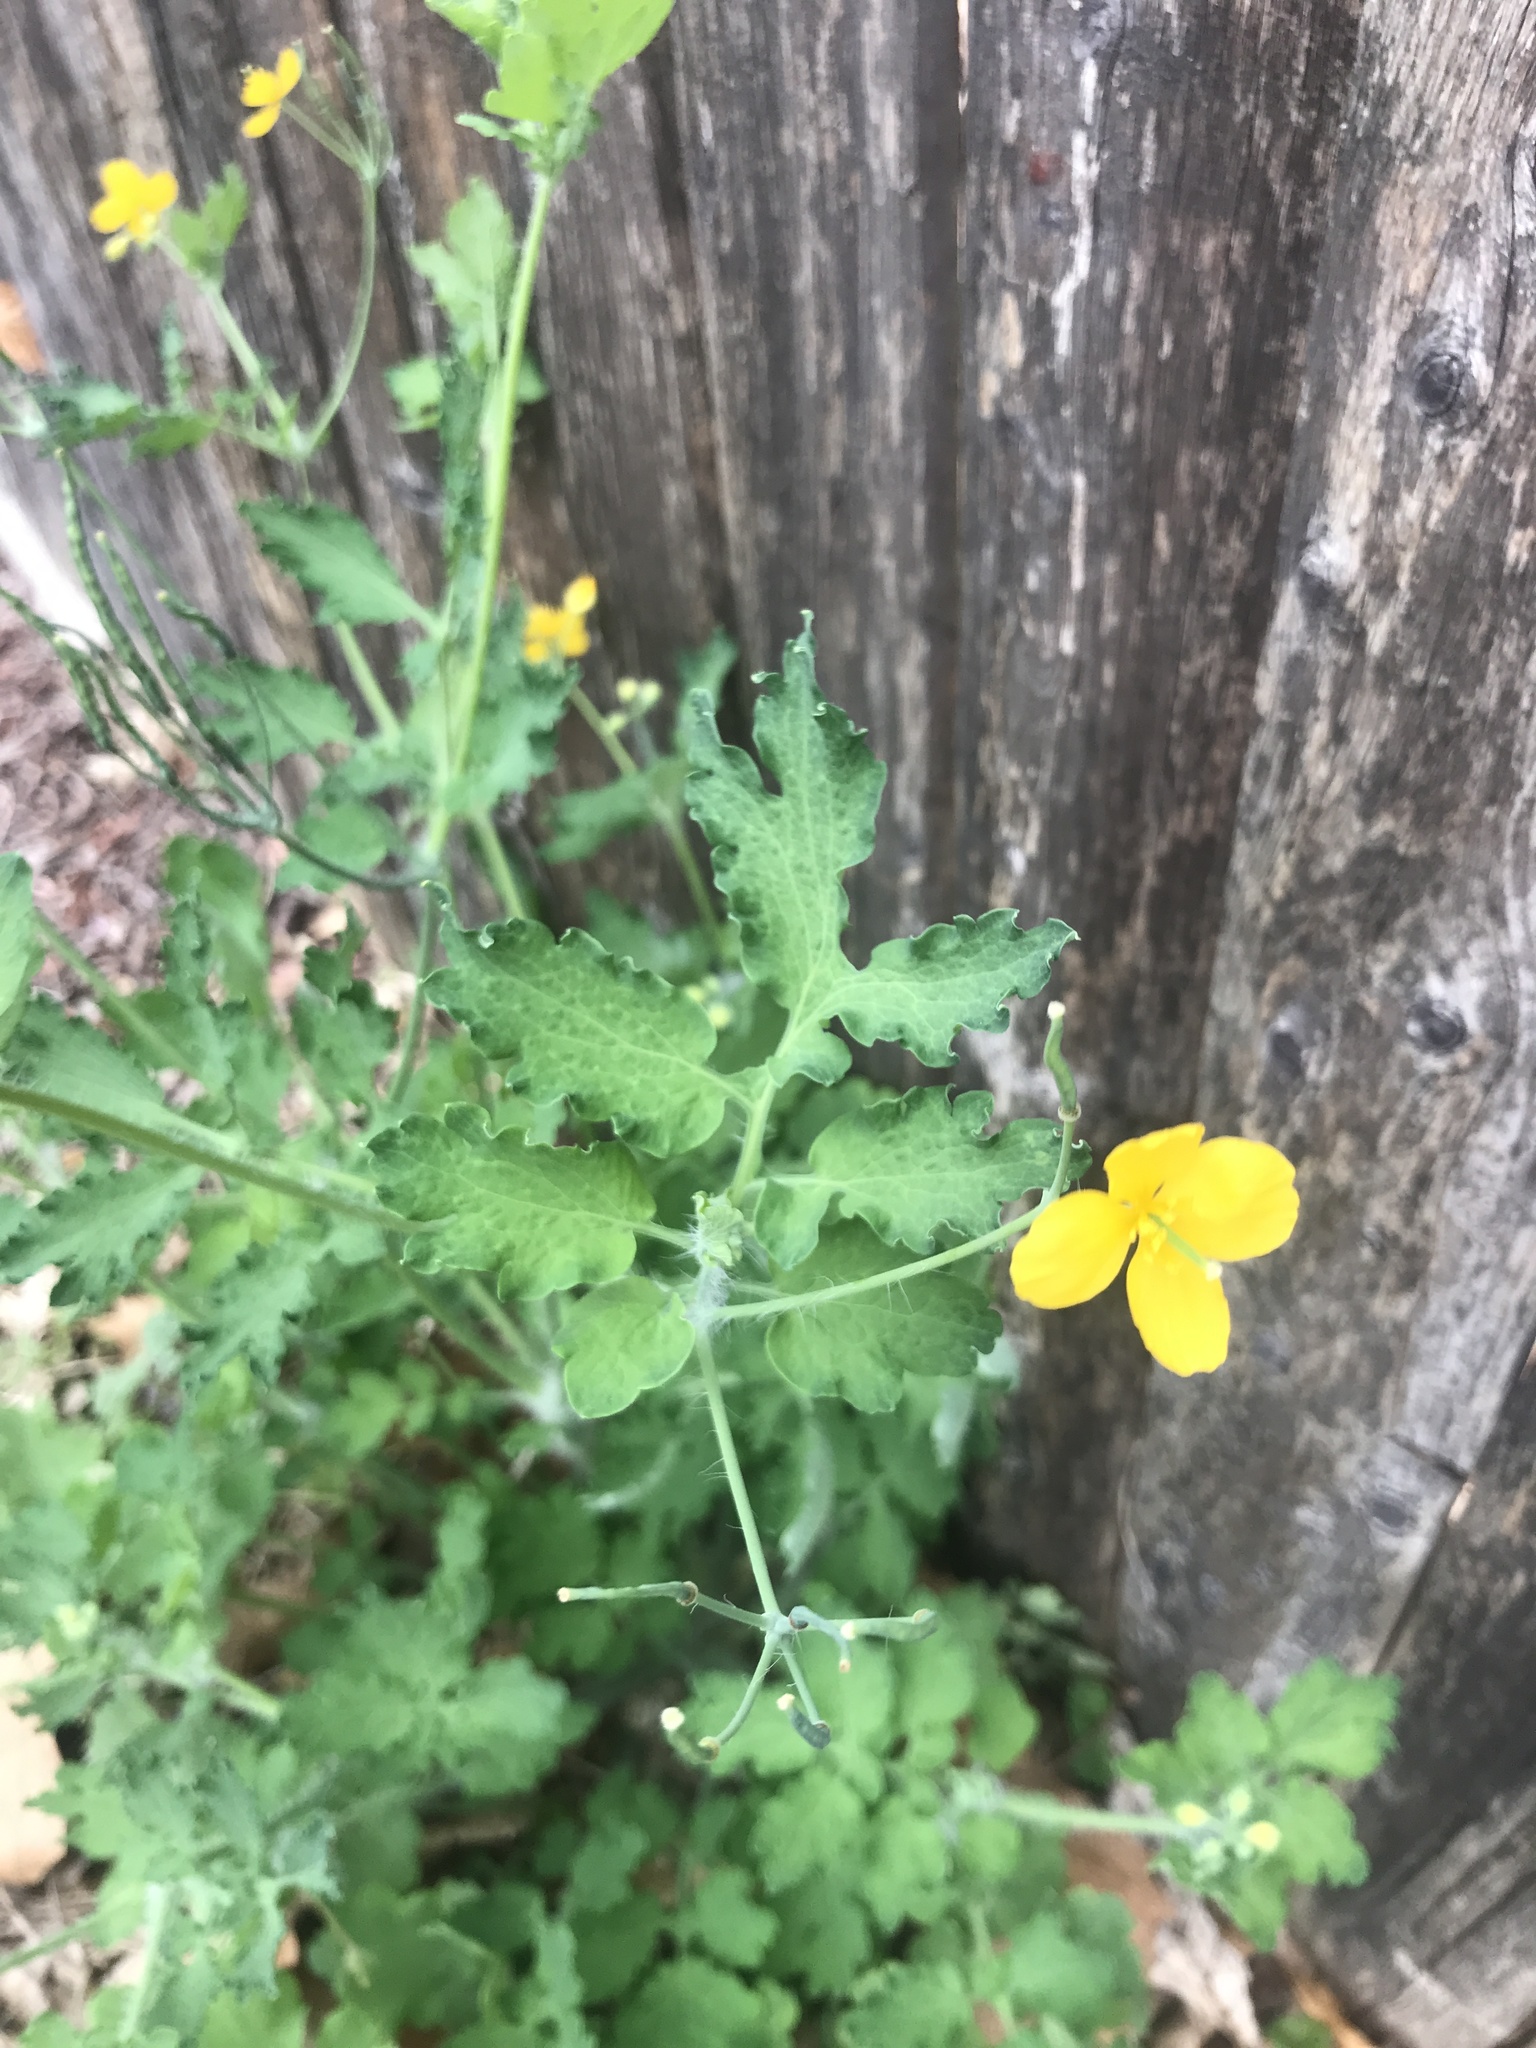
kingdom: Plantae
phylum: Tracheophyta
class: Magnoliopsida
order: Ranunculales
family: Papaveraceae
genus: Chelidonium
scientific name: Chelidonium majus
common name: Greater celandine
